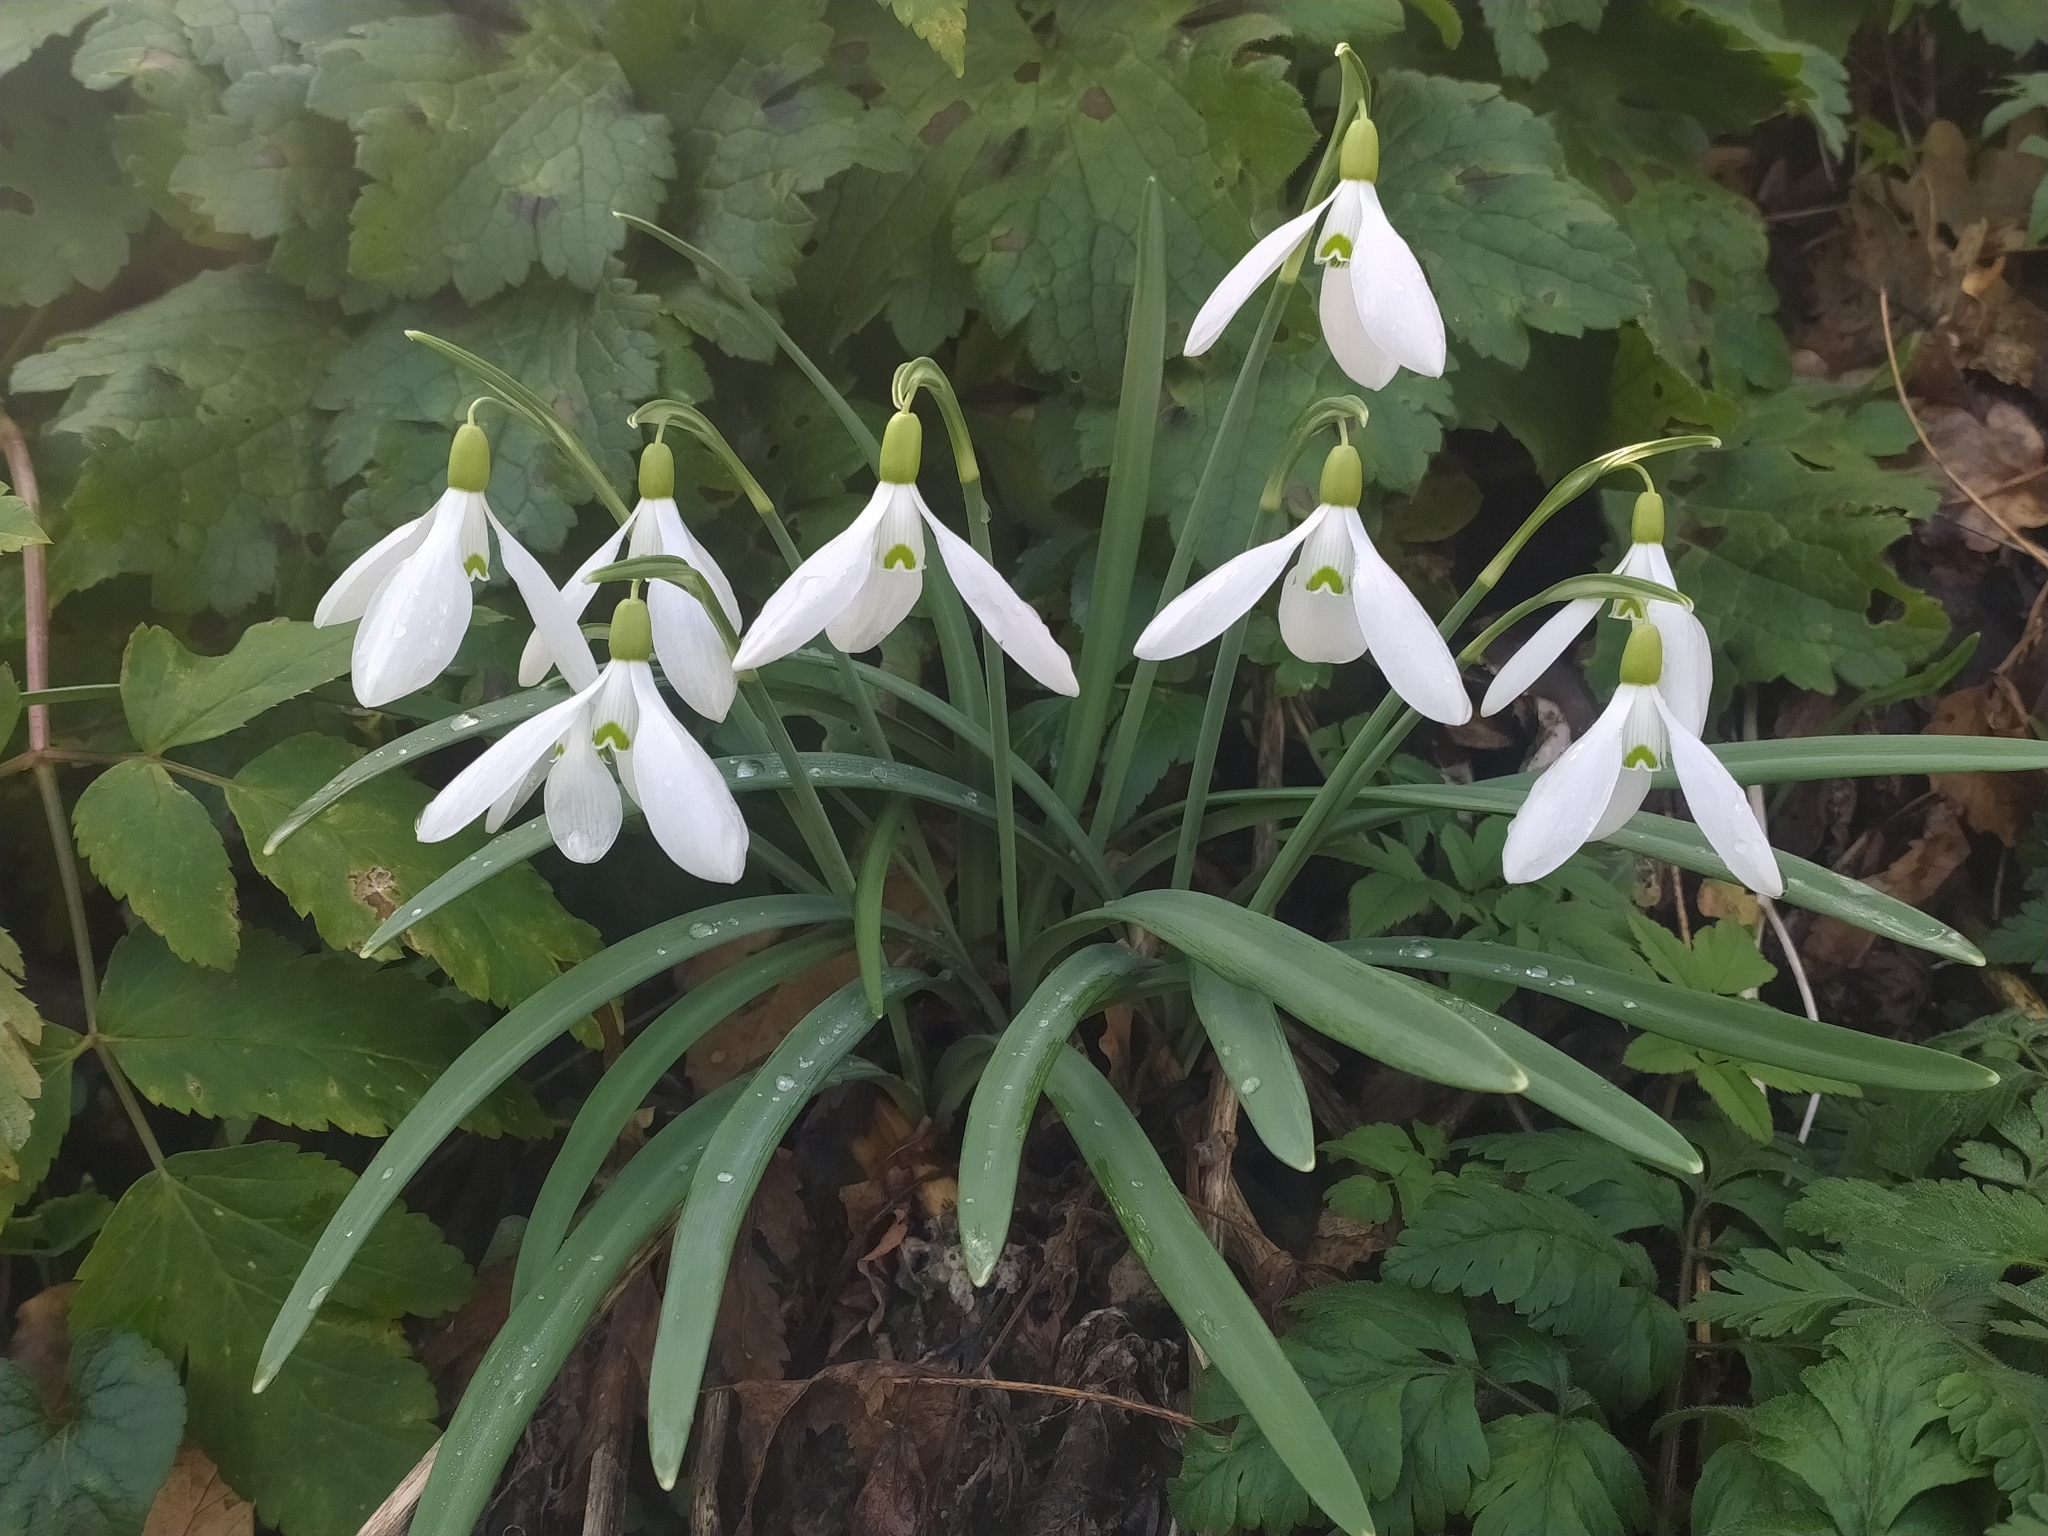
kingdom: Plantae
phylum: Tracheophyta
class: Liliopsida
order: Asparagales
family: Amaryllidaceae
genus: Galanthus
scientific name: Galanthus nivalis
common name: Snowdrop
